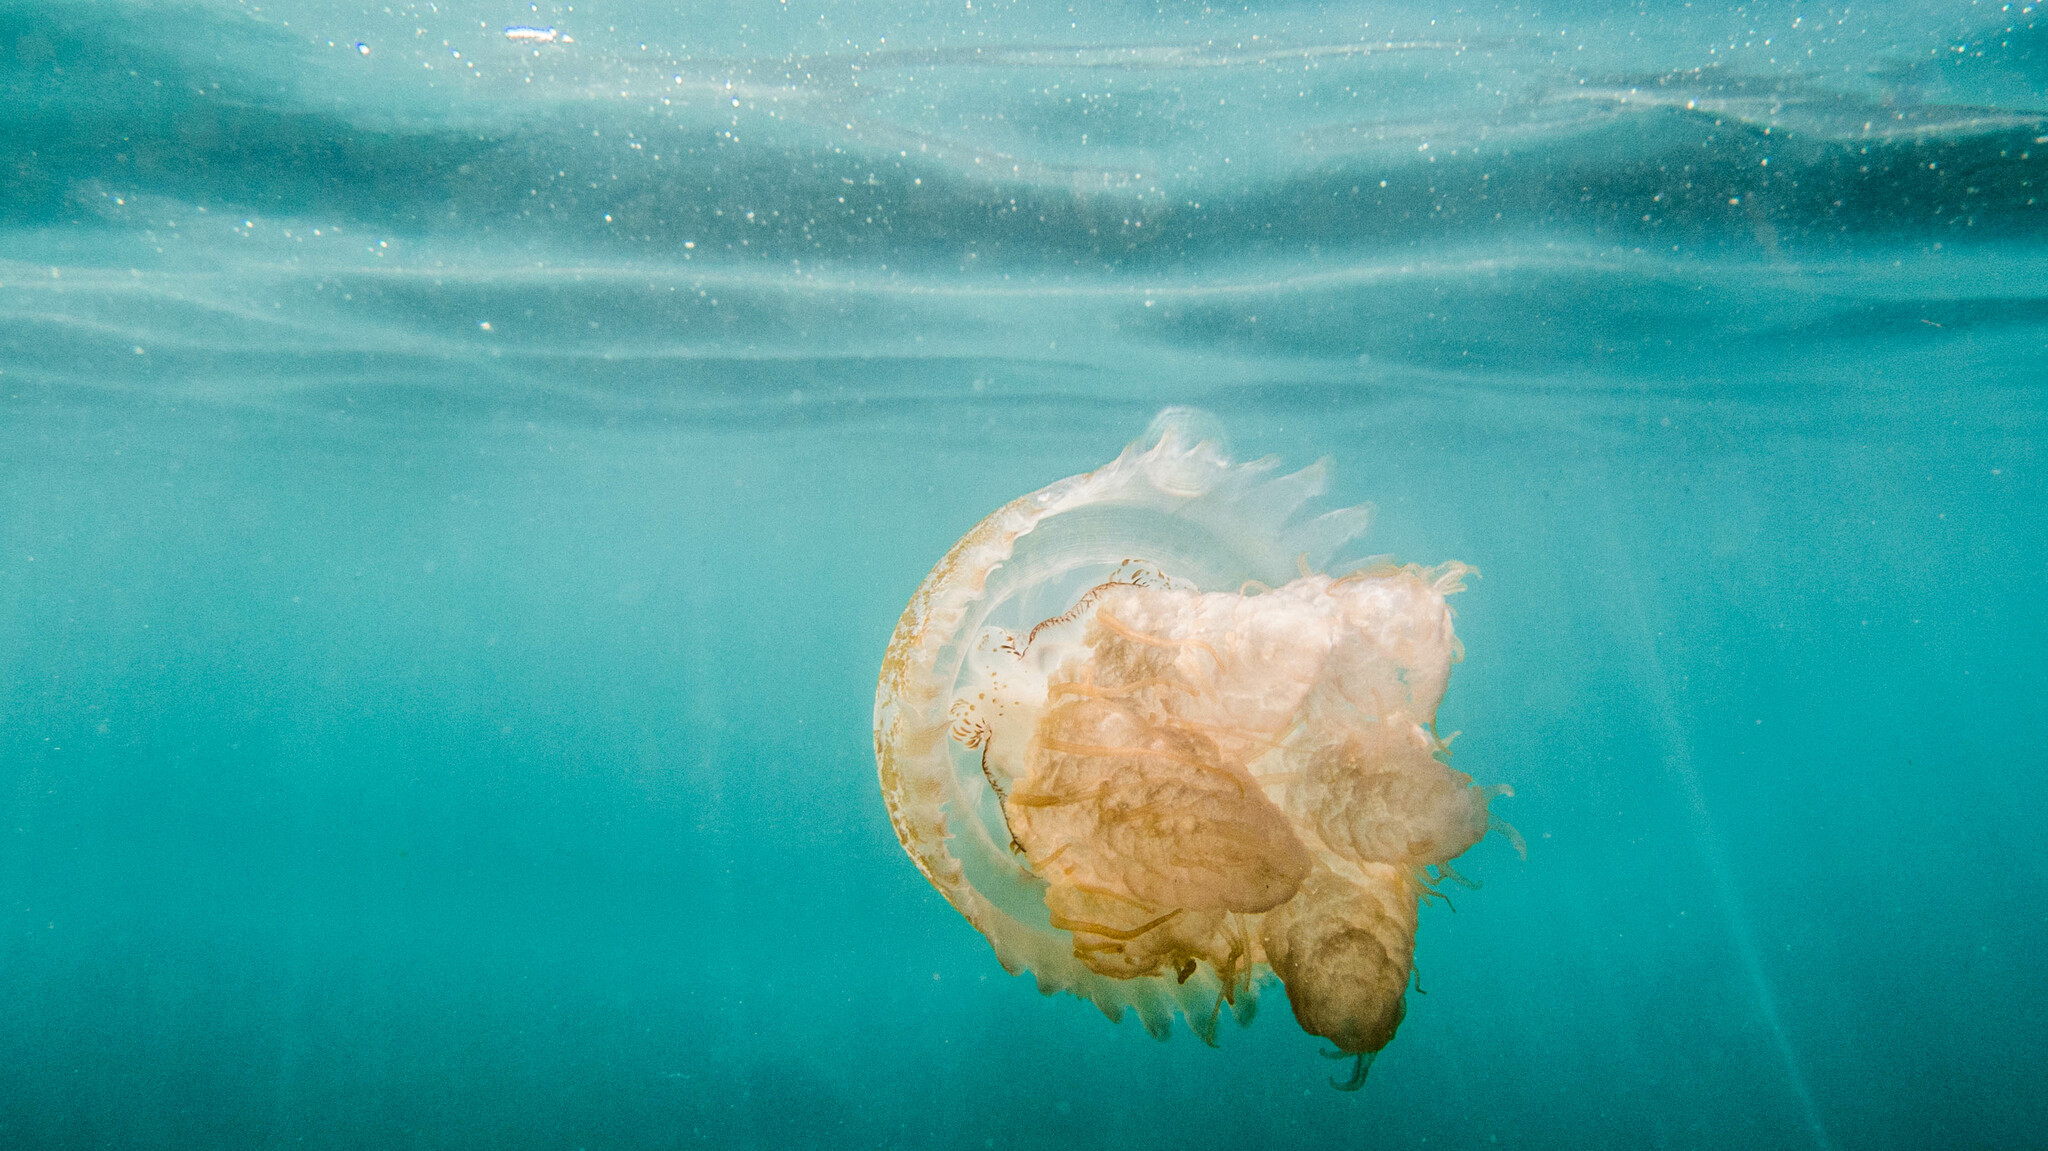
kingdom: Animalia
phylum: Cnidaria
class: Scyphozoa
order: Rhizostomeae
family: Lychnorhizidae
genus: Lychnorhiza
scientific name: Lychnorhiza lucerna
